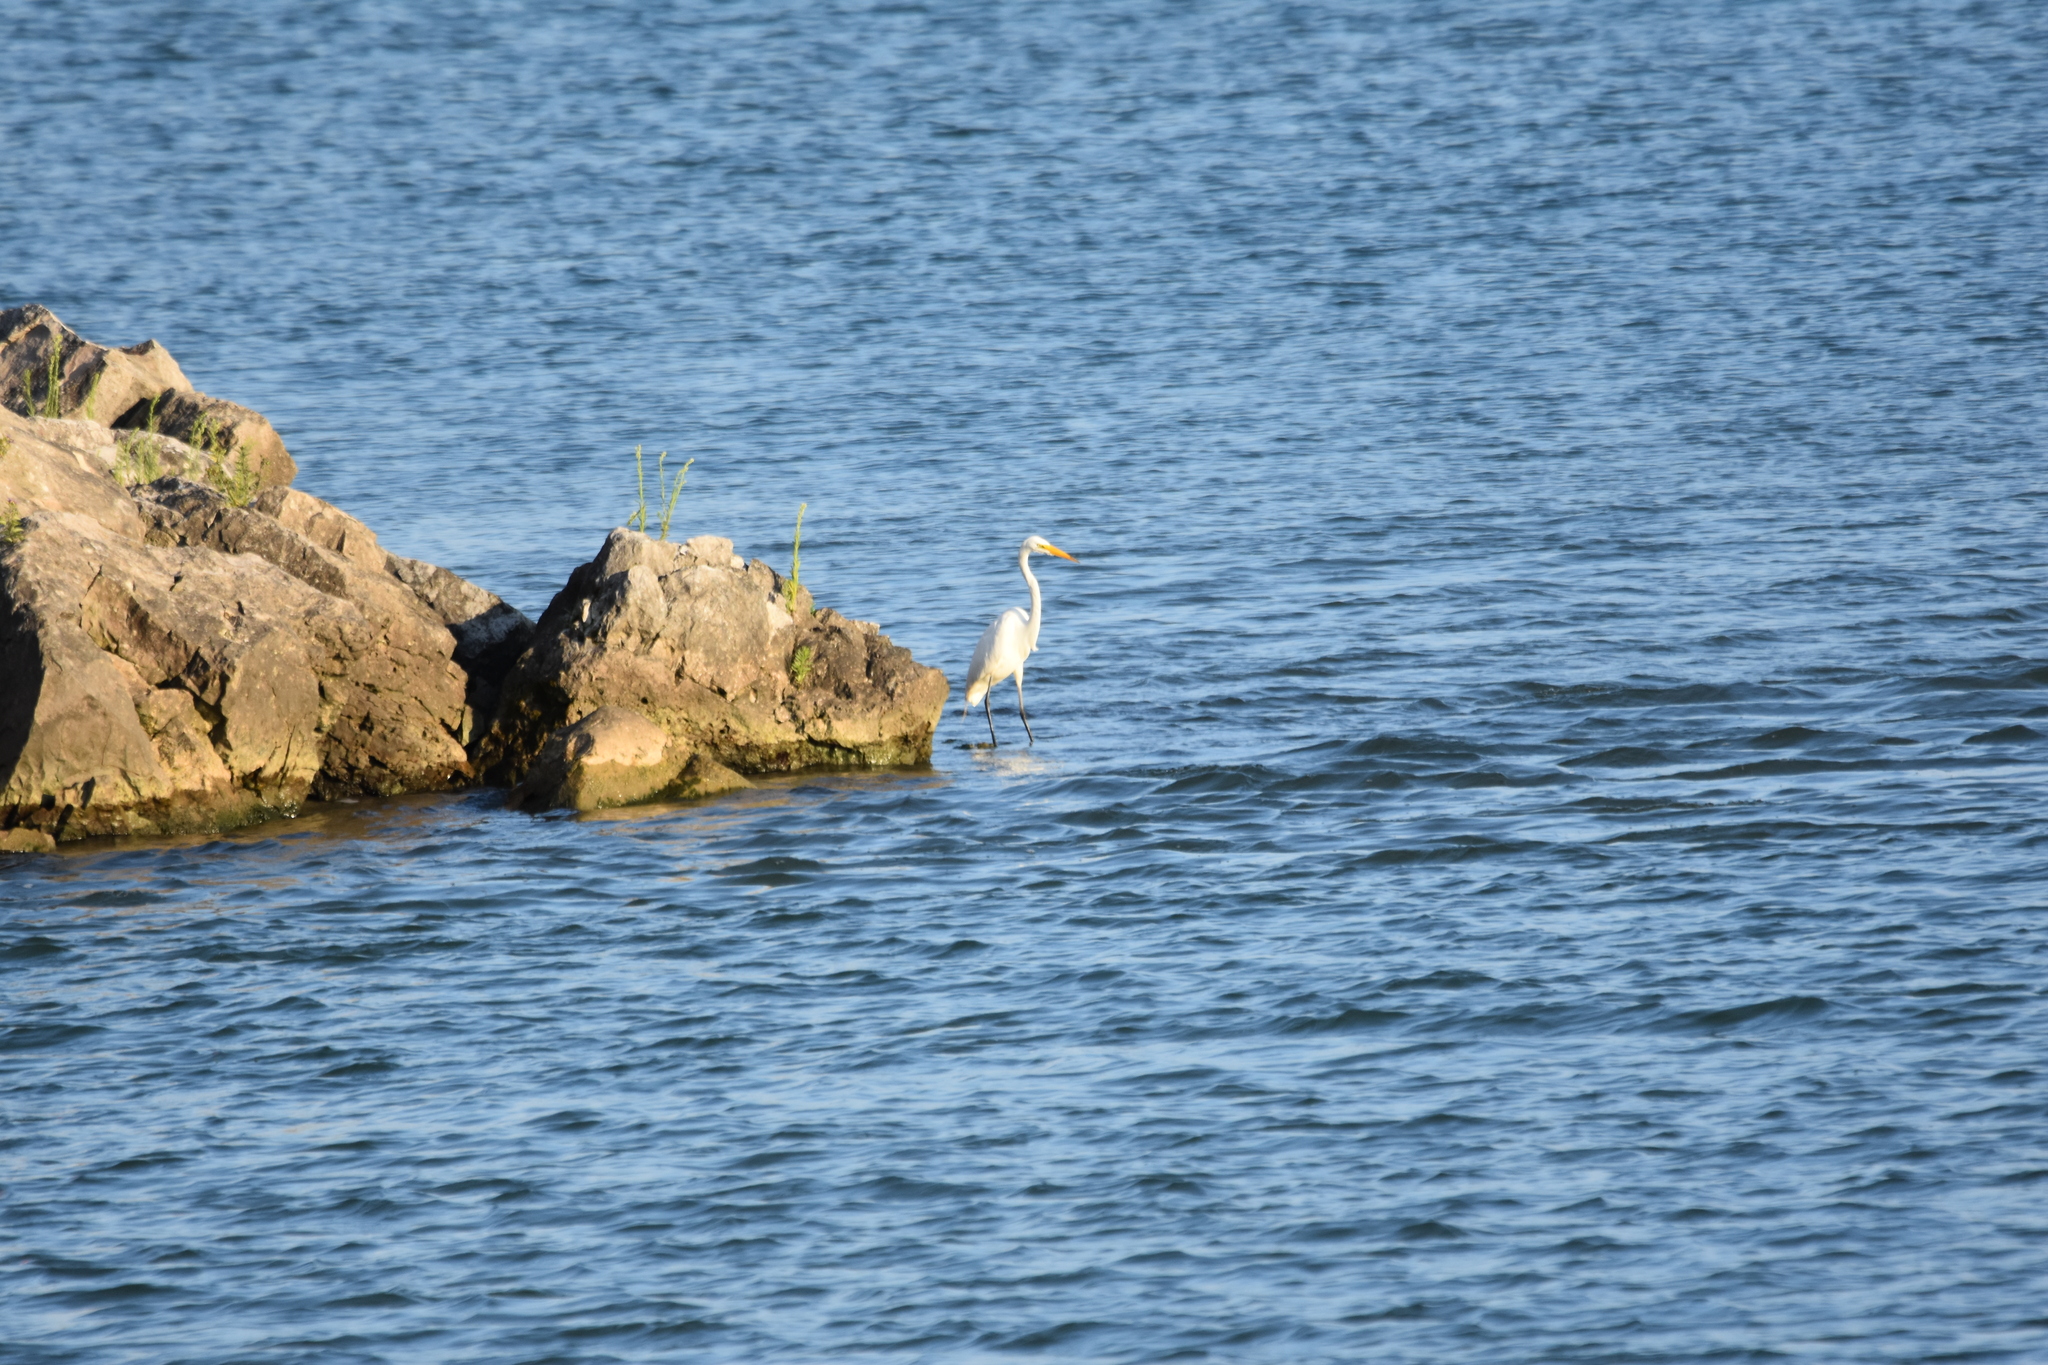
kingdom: Animalia
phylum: Chordata
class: Aves
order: Pelecaniformes
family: Ardeidae
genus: Ardea
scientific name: Ardea alba
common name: Great egret
